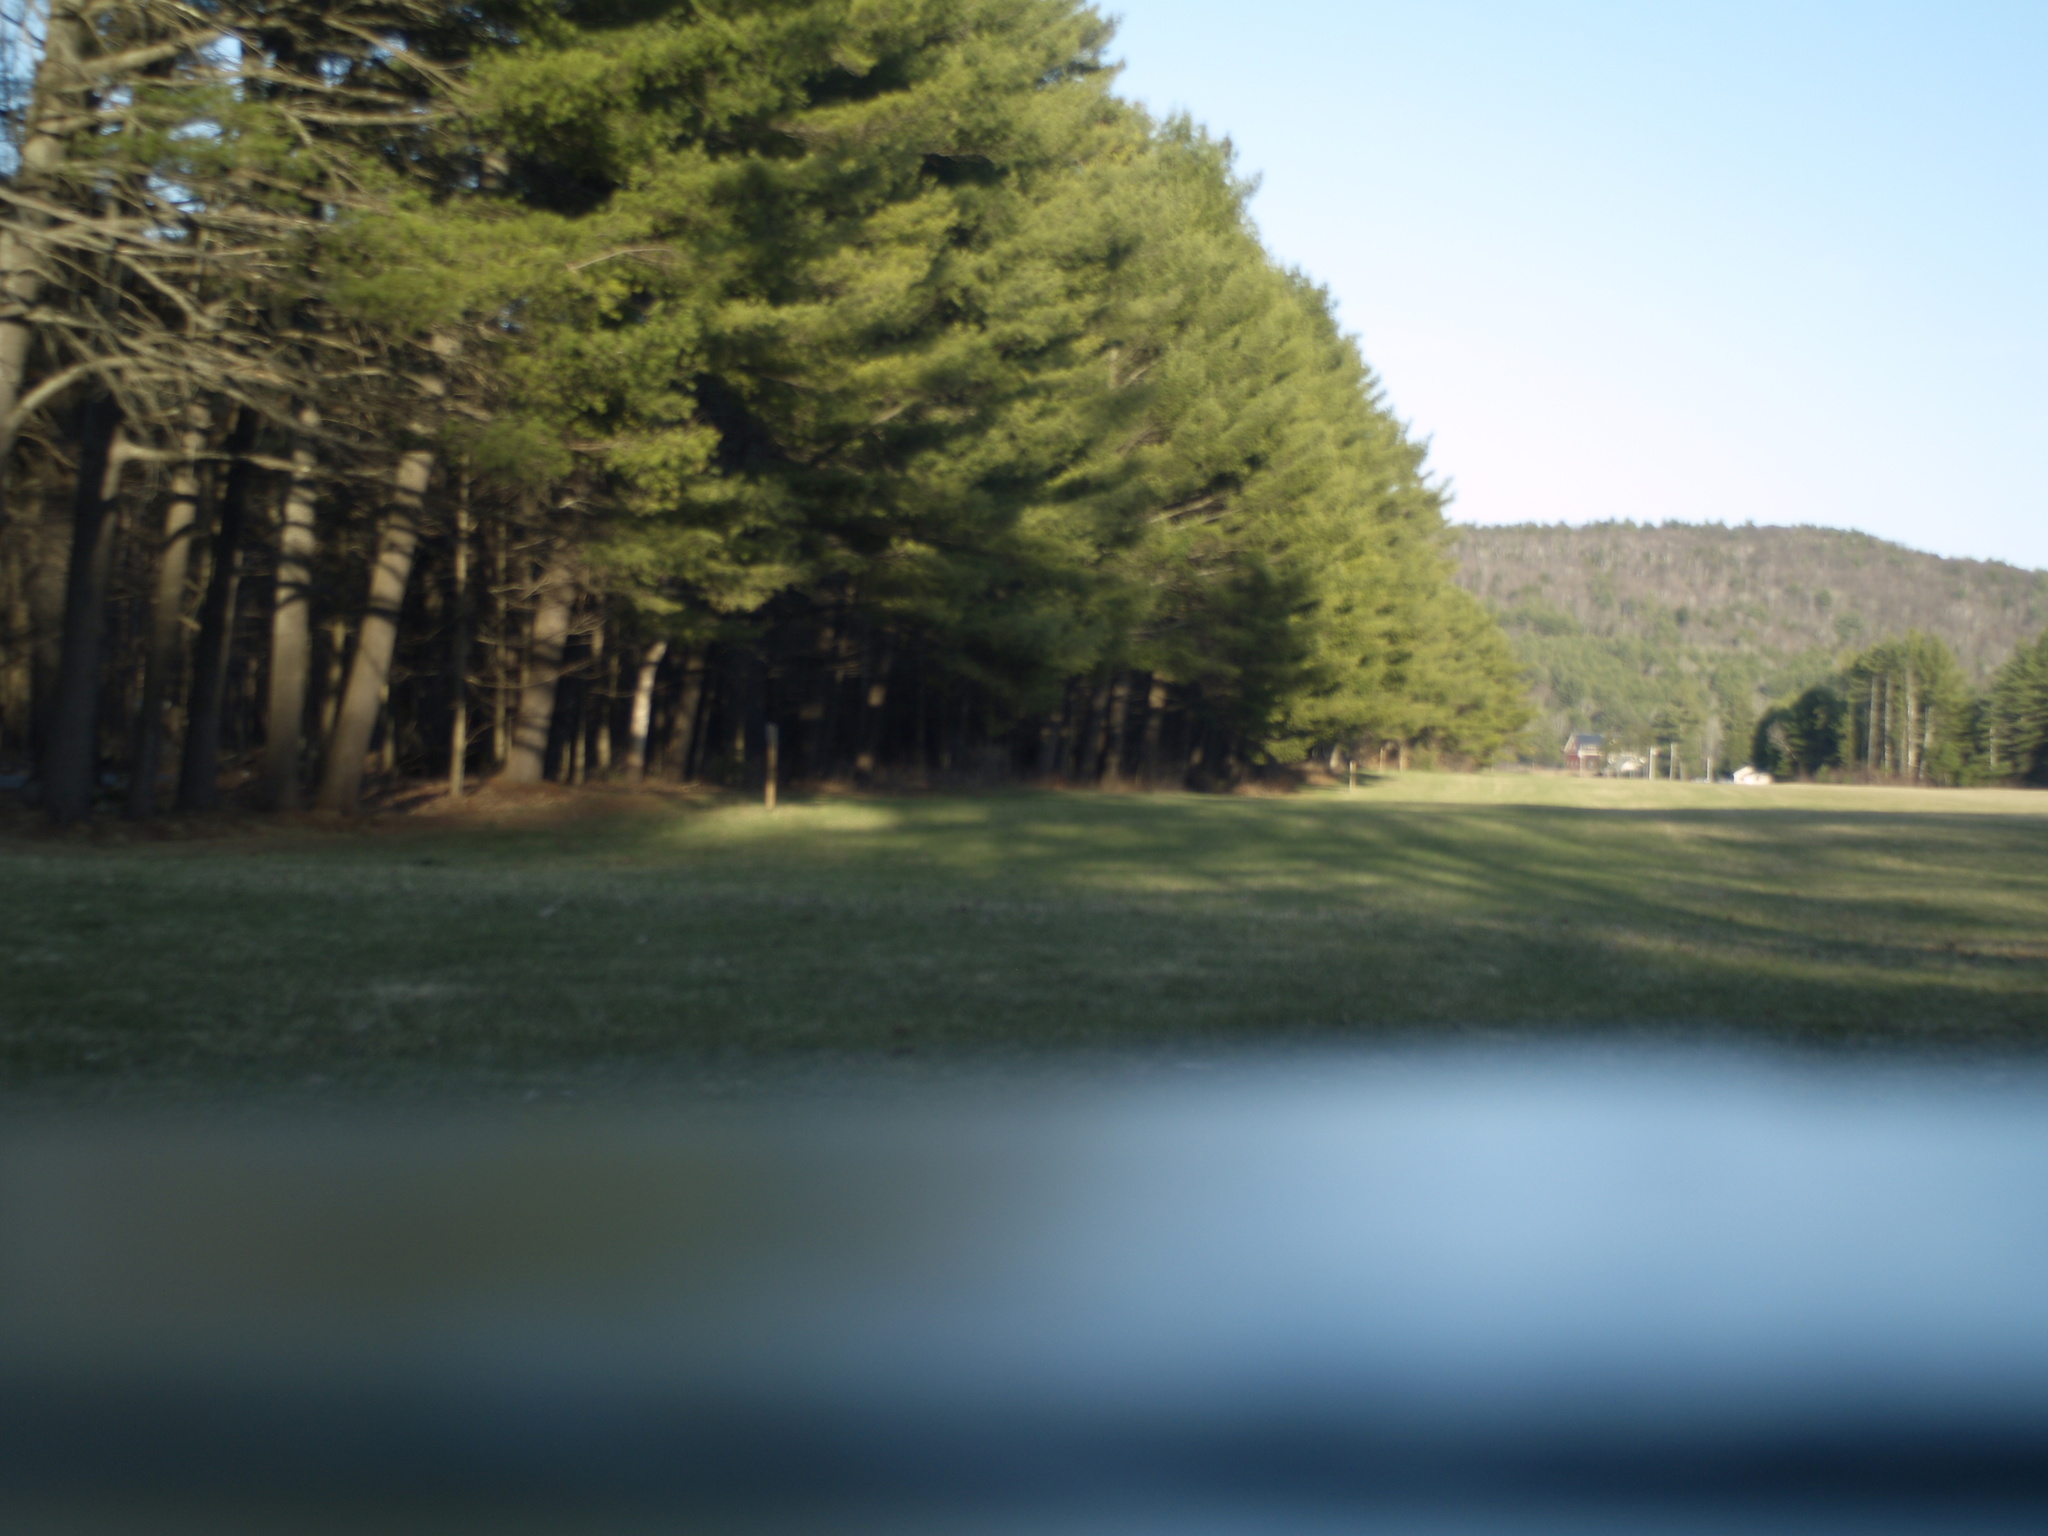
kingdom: Plantae
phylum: Tracheophyta
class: Pinopsida
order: Pinales
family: Pinaceae
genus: Pinus
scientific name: Pinus strobus
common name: Weymouth pine
